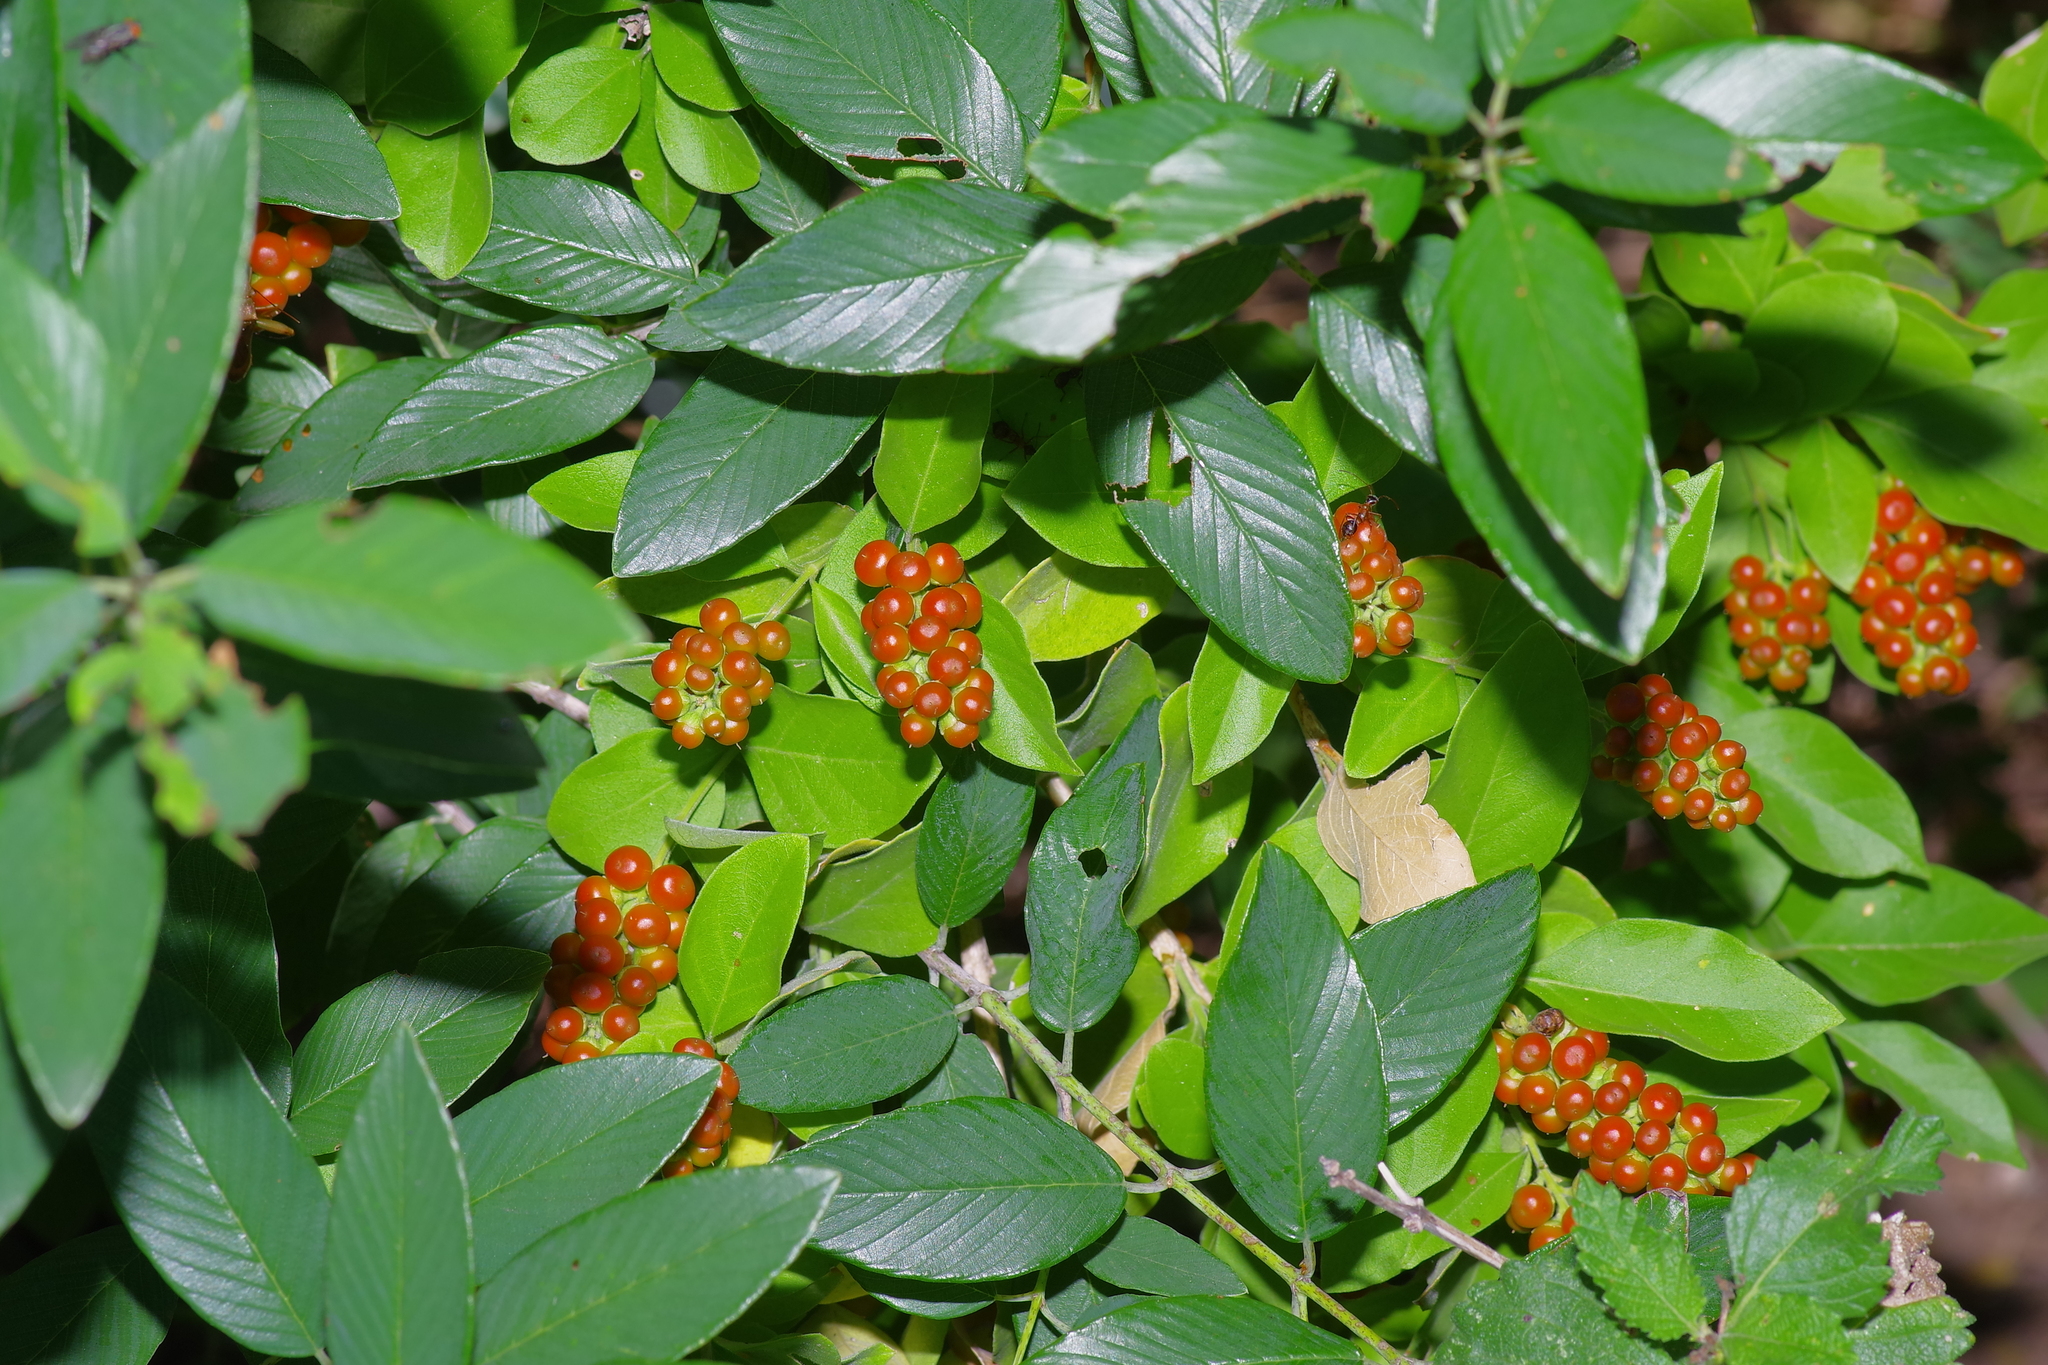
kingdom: Plantae
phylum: Tracheophyta
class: Magnoliopsida
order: Lamiales
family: Verbenaceae
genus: Citharexylum
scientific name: Citharexylum berlandieri
